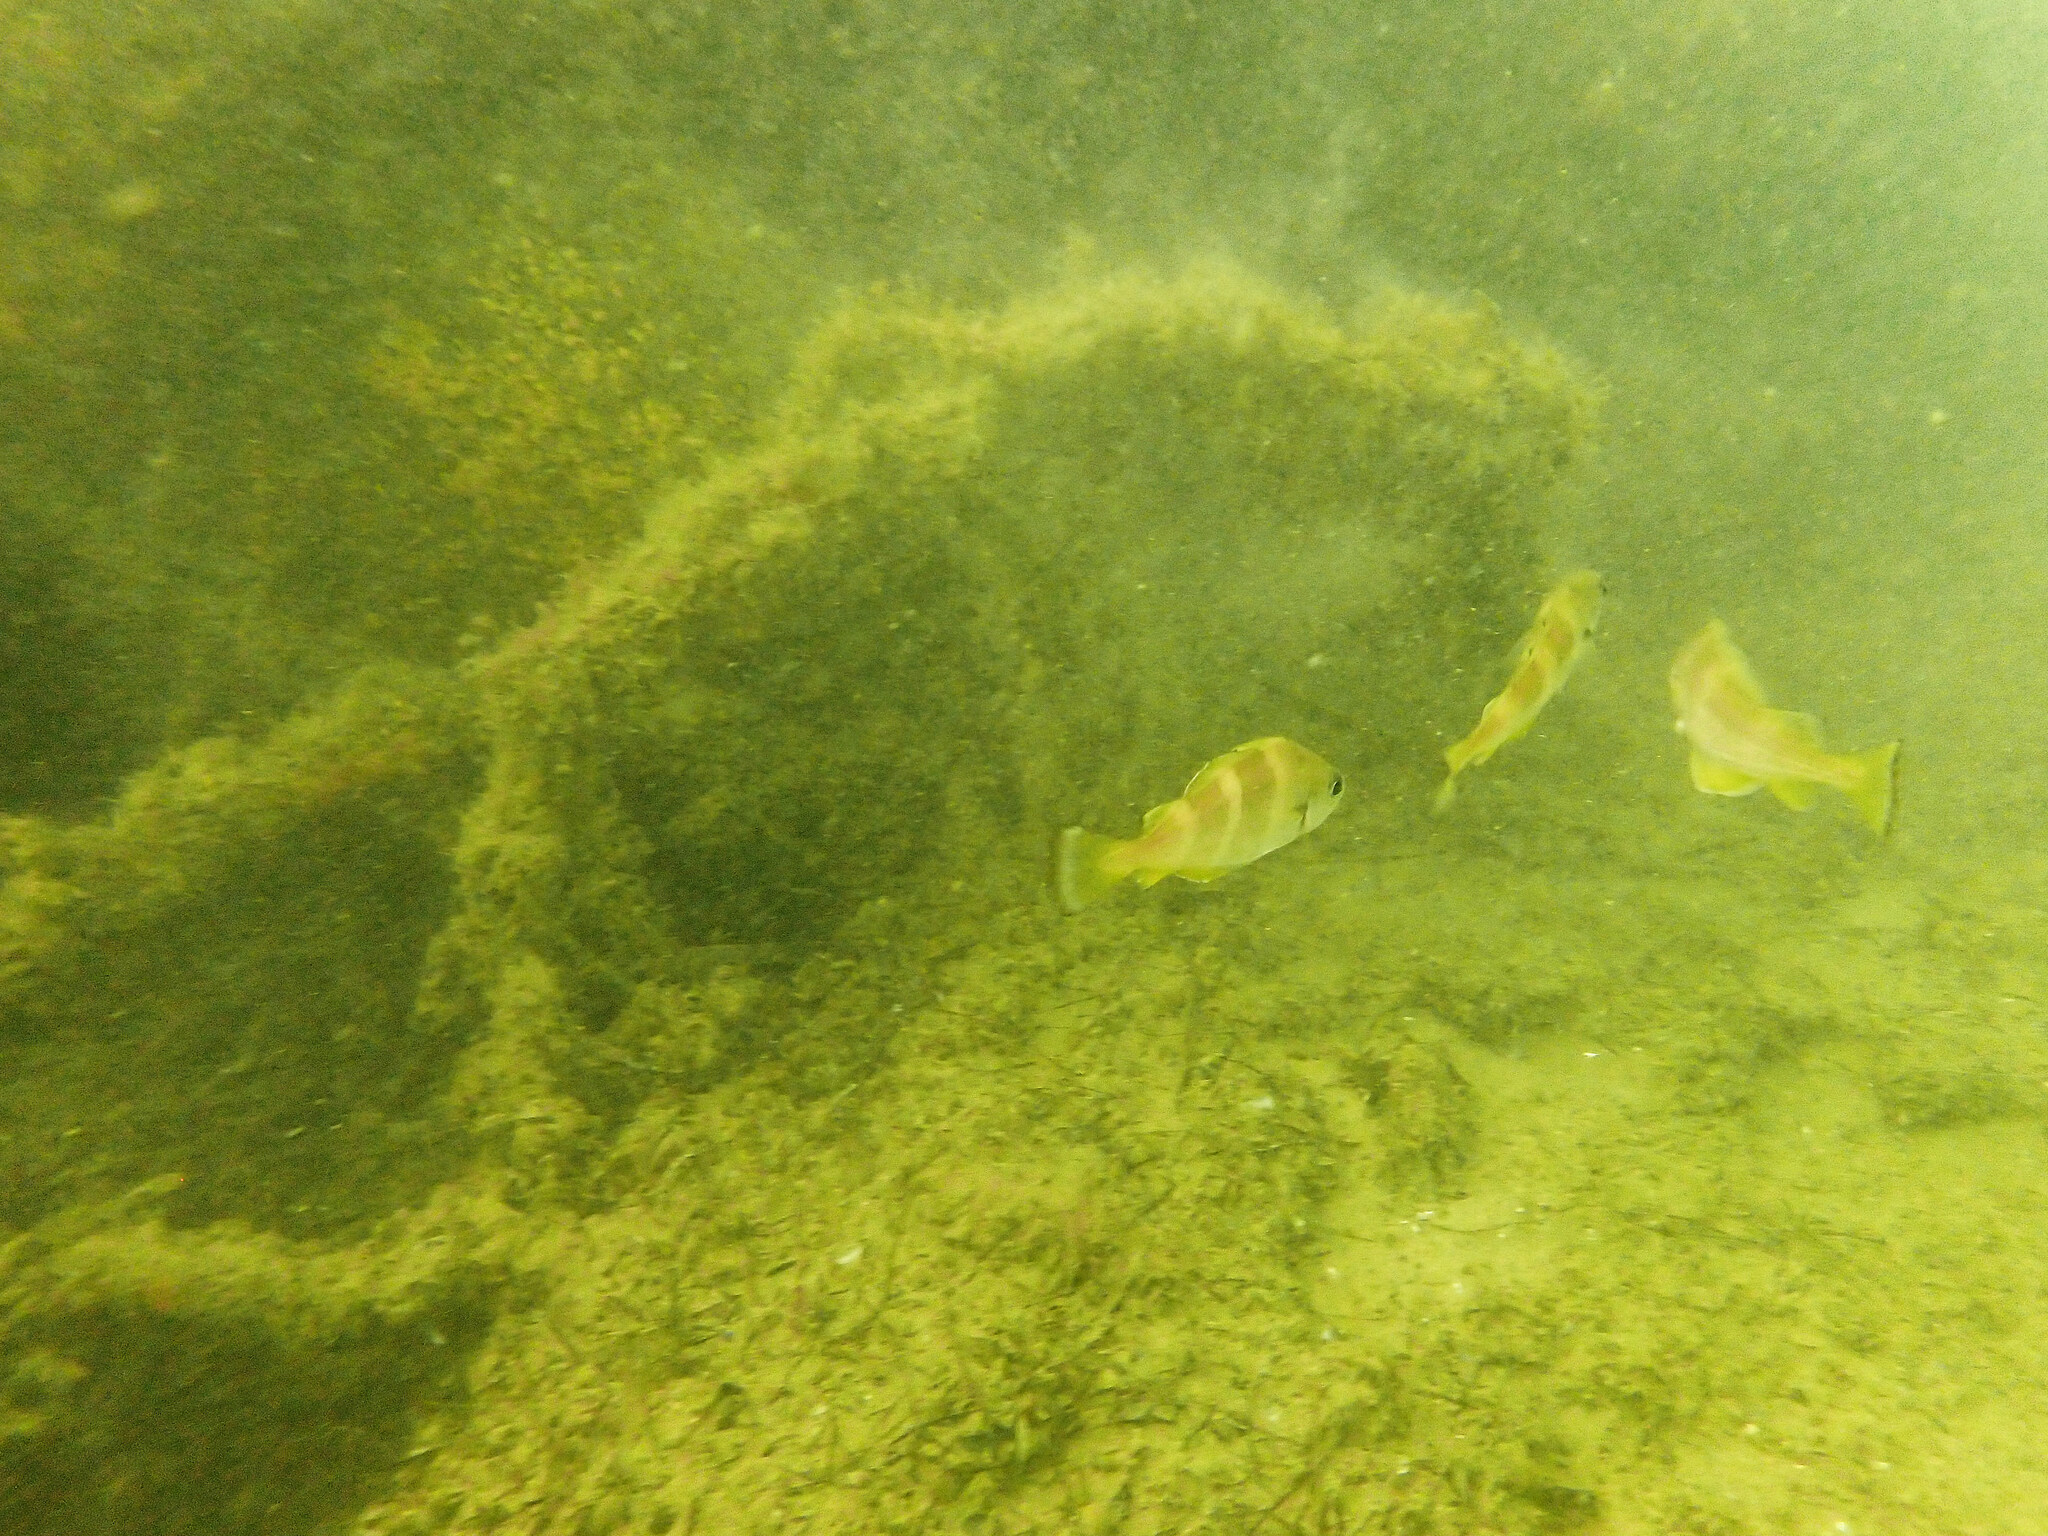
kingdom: Animalia
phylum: Chordata
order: Gadiformes
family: Gadidae
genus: Trisopterus
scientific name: Trisopterus luscus
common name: Bib
